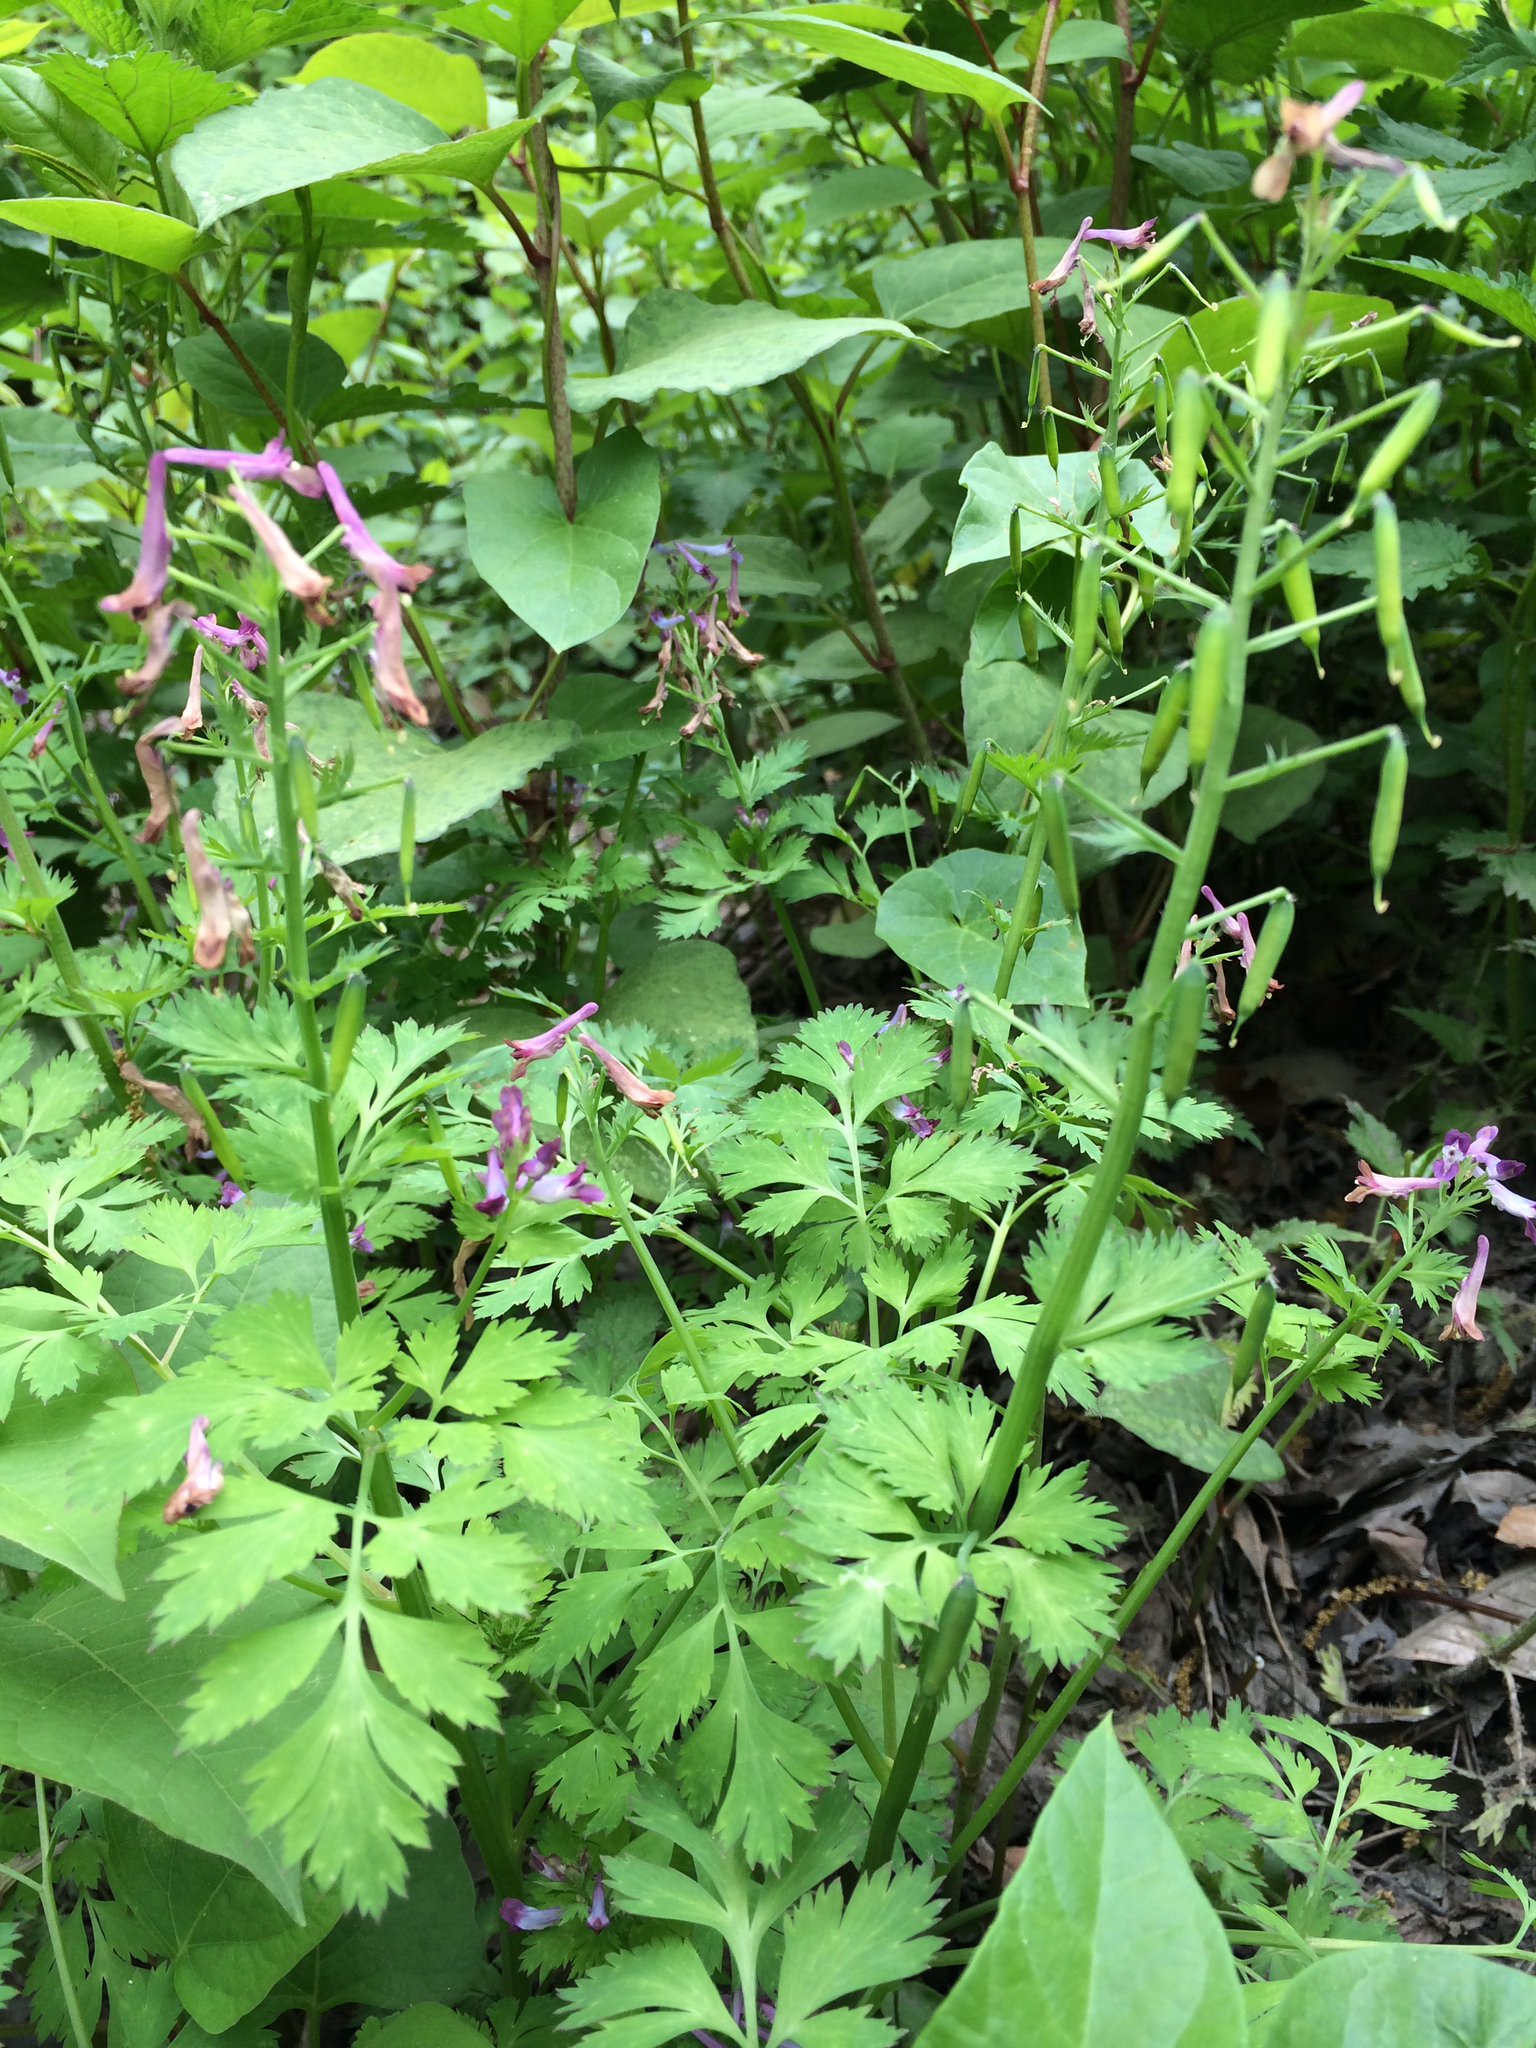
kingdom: Plantae
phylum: Tracheophyta
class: Magnoliopsida
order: Ranunculales
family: Papaveraceae
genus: Corydalis
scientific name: Corydalis incisa
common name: Incised fumewort
